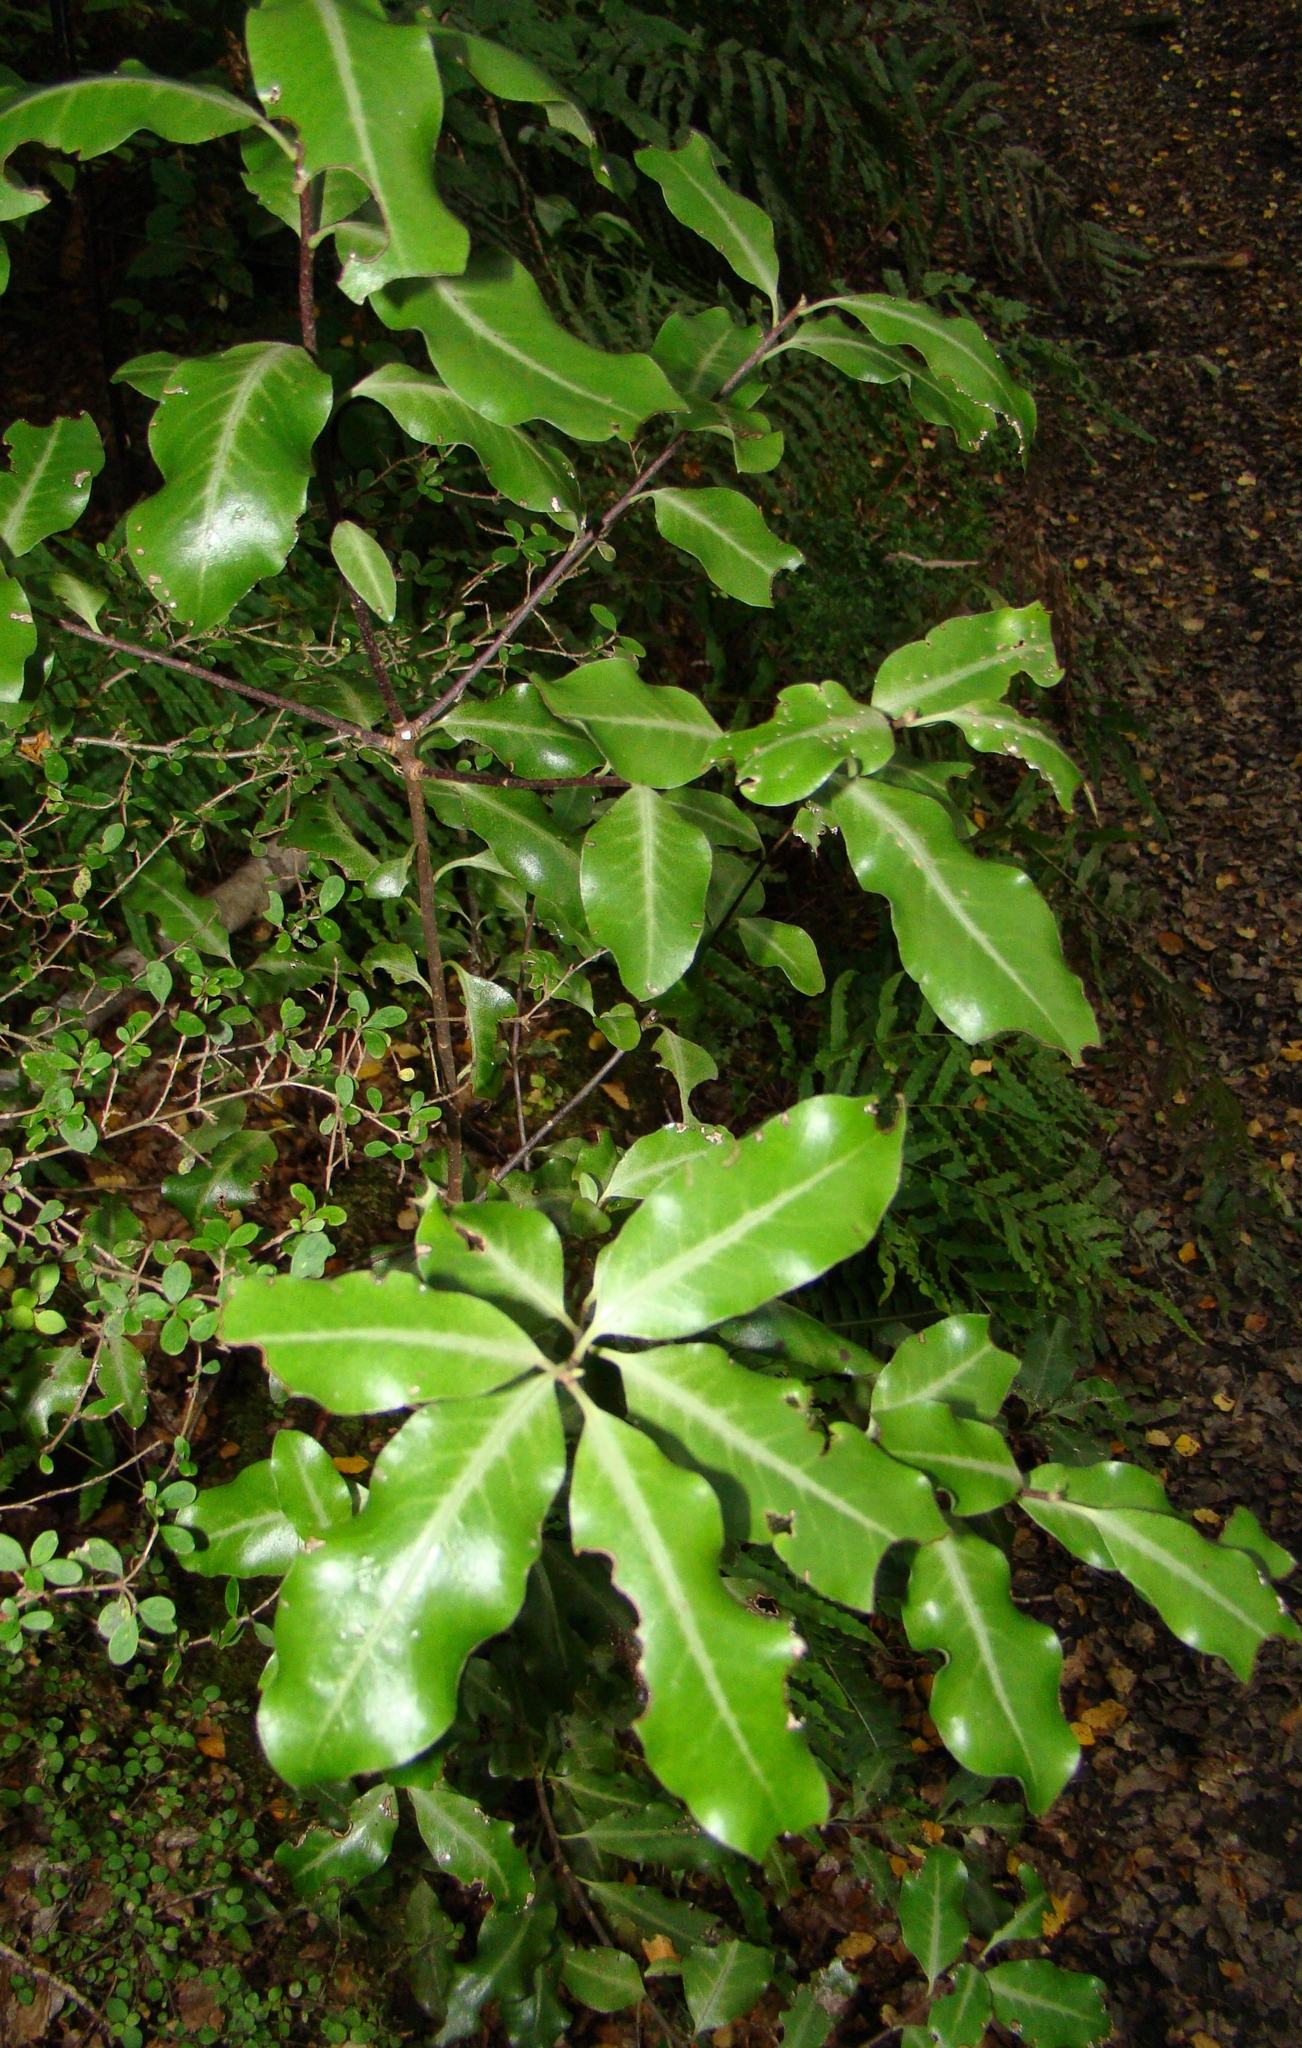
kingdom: Plantae
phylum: Tracheophyta
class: Magnoliopsida
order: Apiales
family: Pittosporaceae
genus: Pittosporum
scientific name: Pittosporum colensoi
